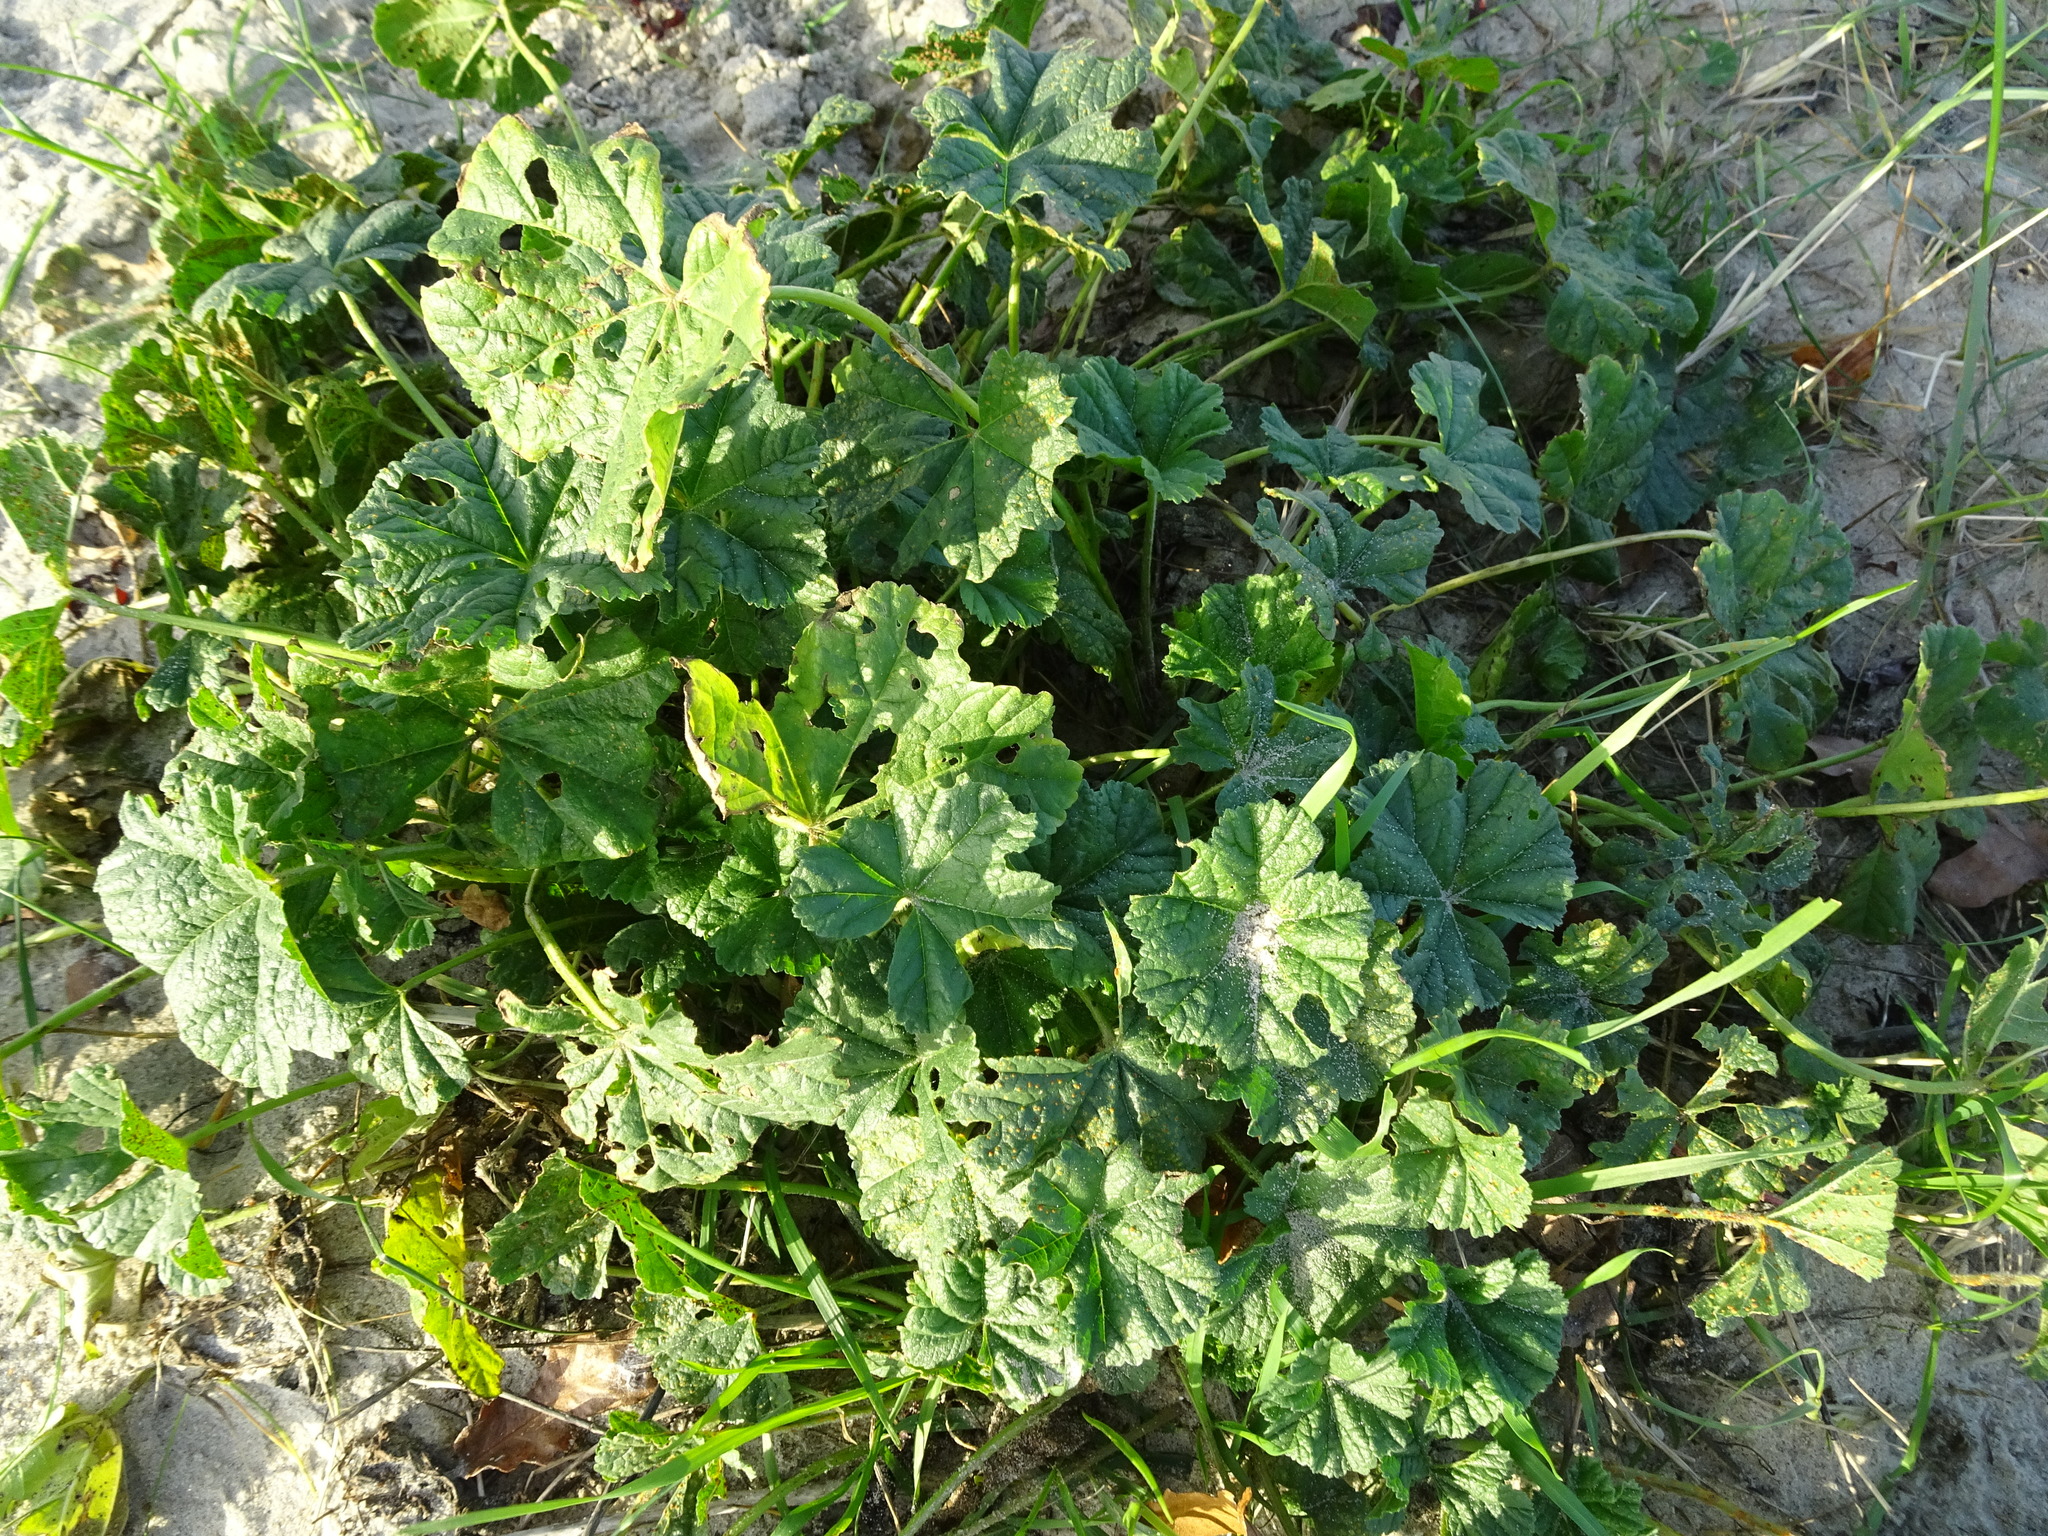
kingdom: Plantae
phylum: Tracheophyta
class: Magnoliopsida
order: Malvales
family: Malvaceae
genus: Malva
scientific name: Malva sylvestris
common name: Common mallow
